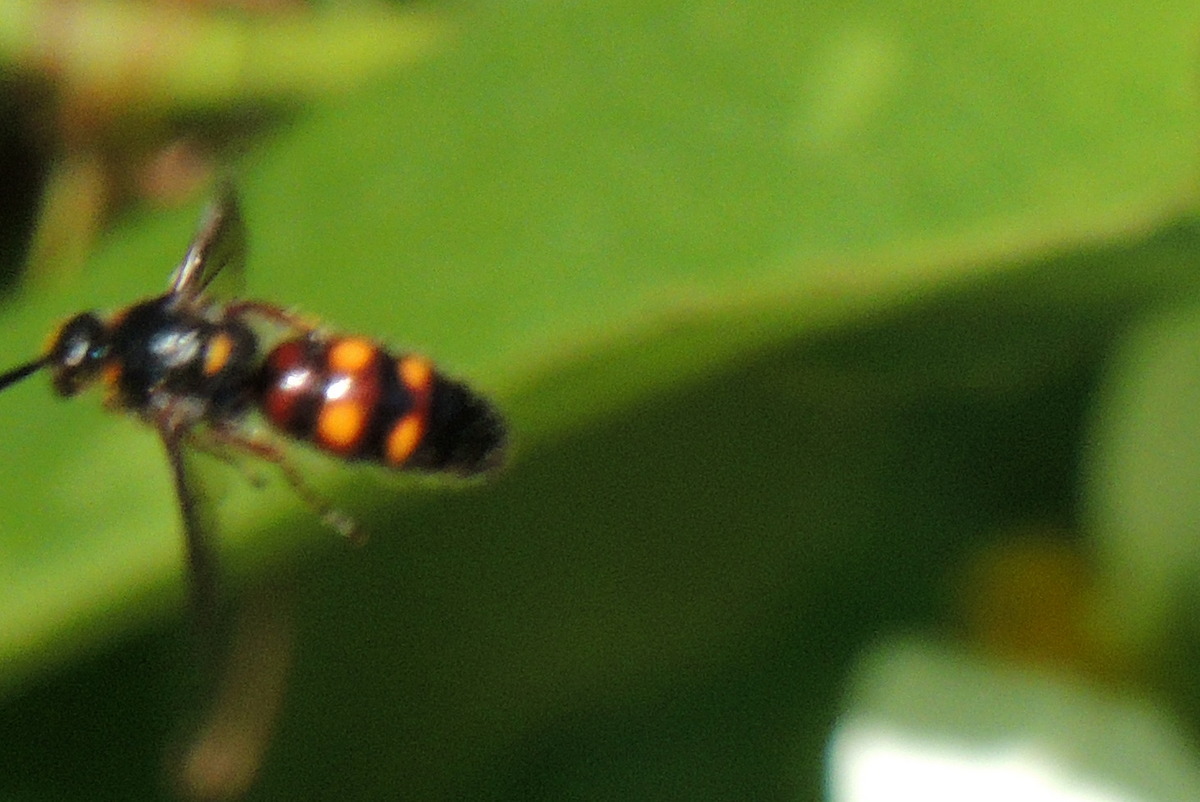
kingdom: Animalia
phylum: Arthropoda
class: Insecta
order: Hymenoptera
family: Scoliidae
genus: Scolia
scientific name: Scolia nobilitata
